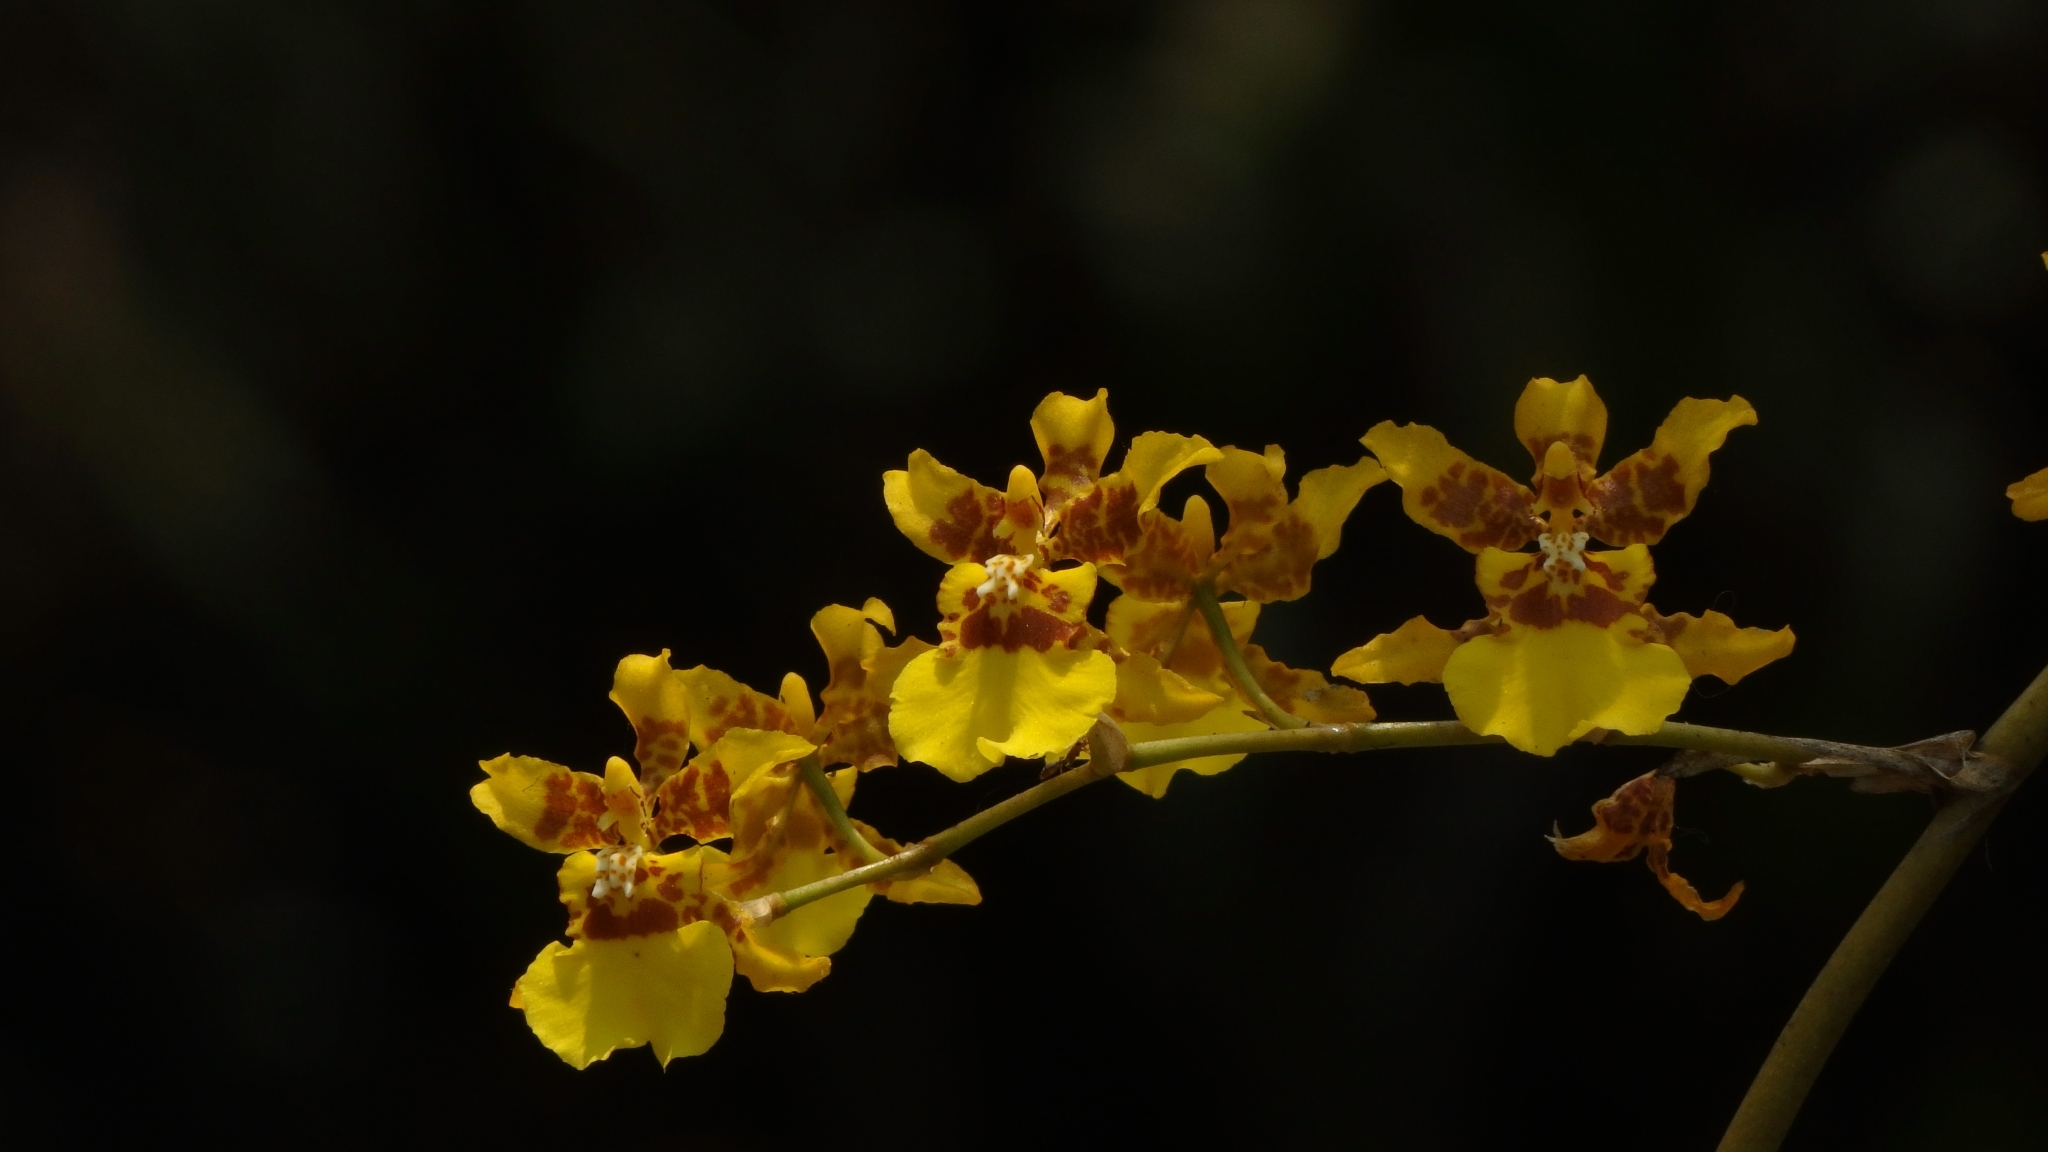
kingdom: Plantae
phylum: Tracheophyta
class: Liliopsida
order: Asparagales
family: Orchidaceae
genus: Oncidium
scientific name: Oncidium sphacelatum
